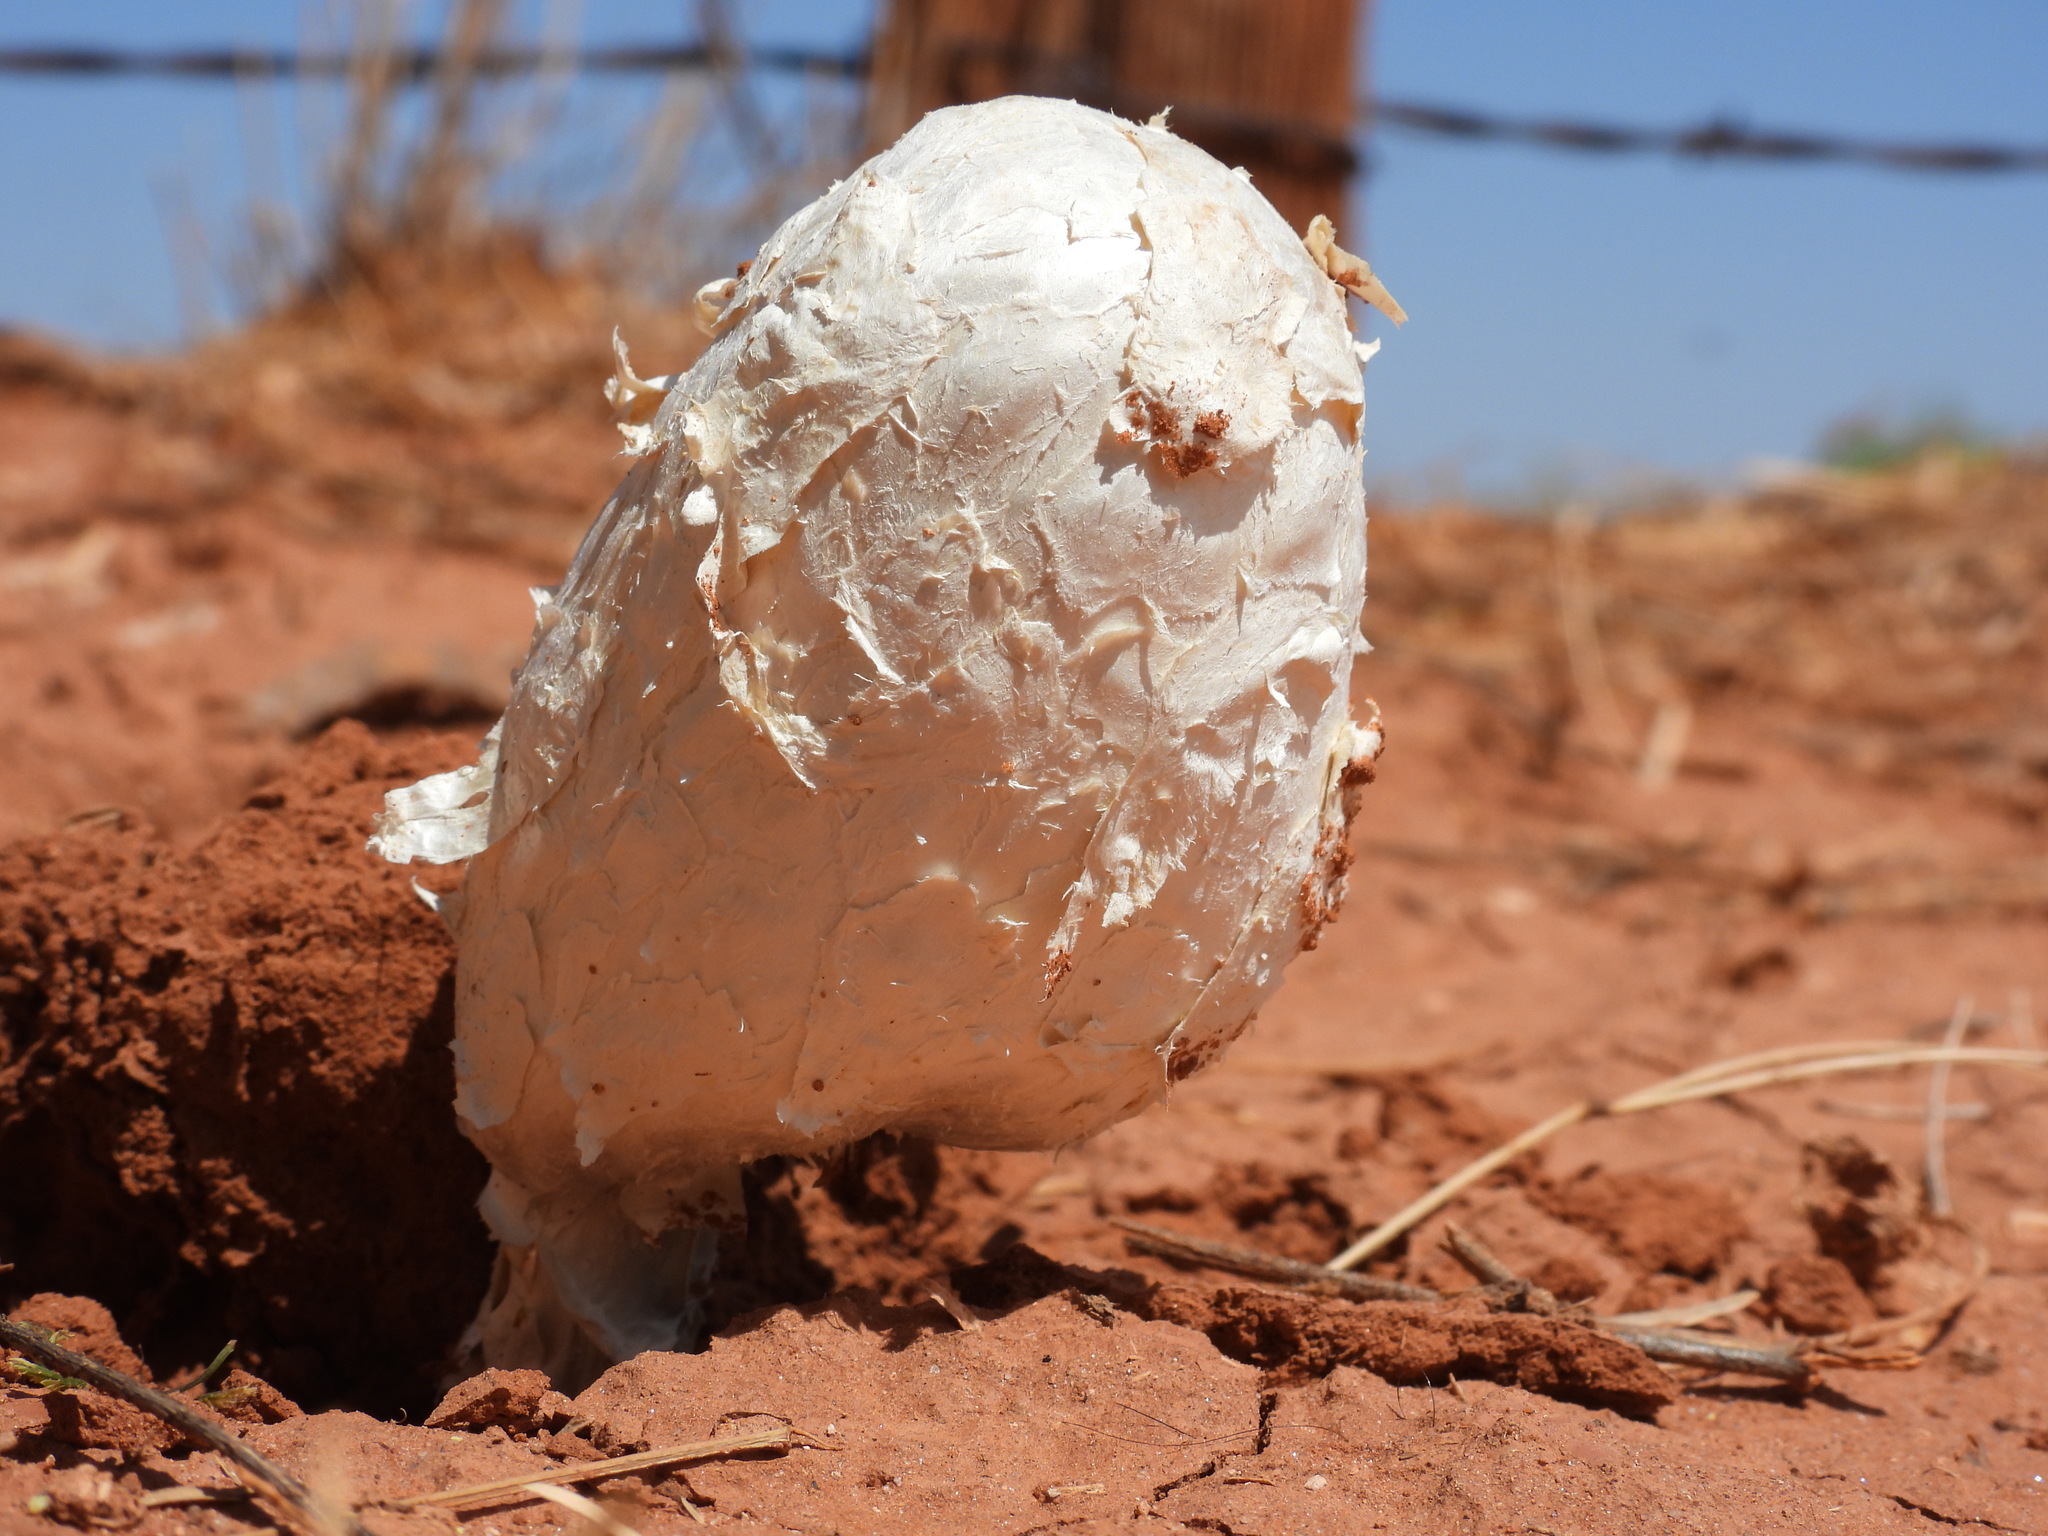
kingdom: Fungi
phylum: Basidiomycota
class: Agaricomycetes
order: Agaricales
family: Agaricaceae
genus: Podaxis
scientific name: Podaxis pistillaris
